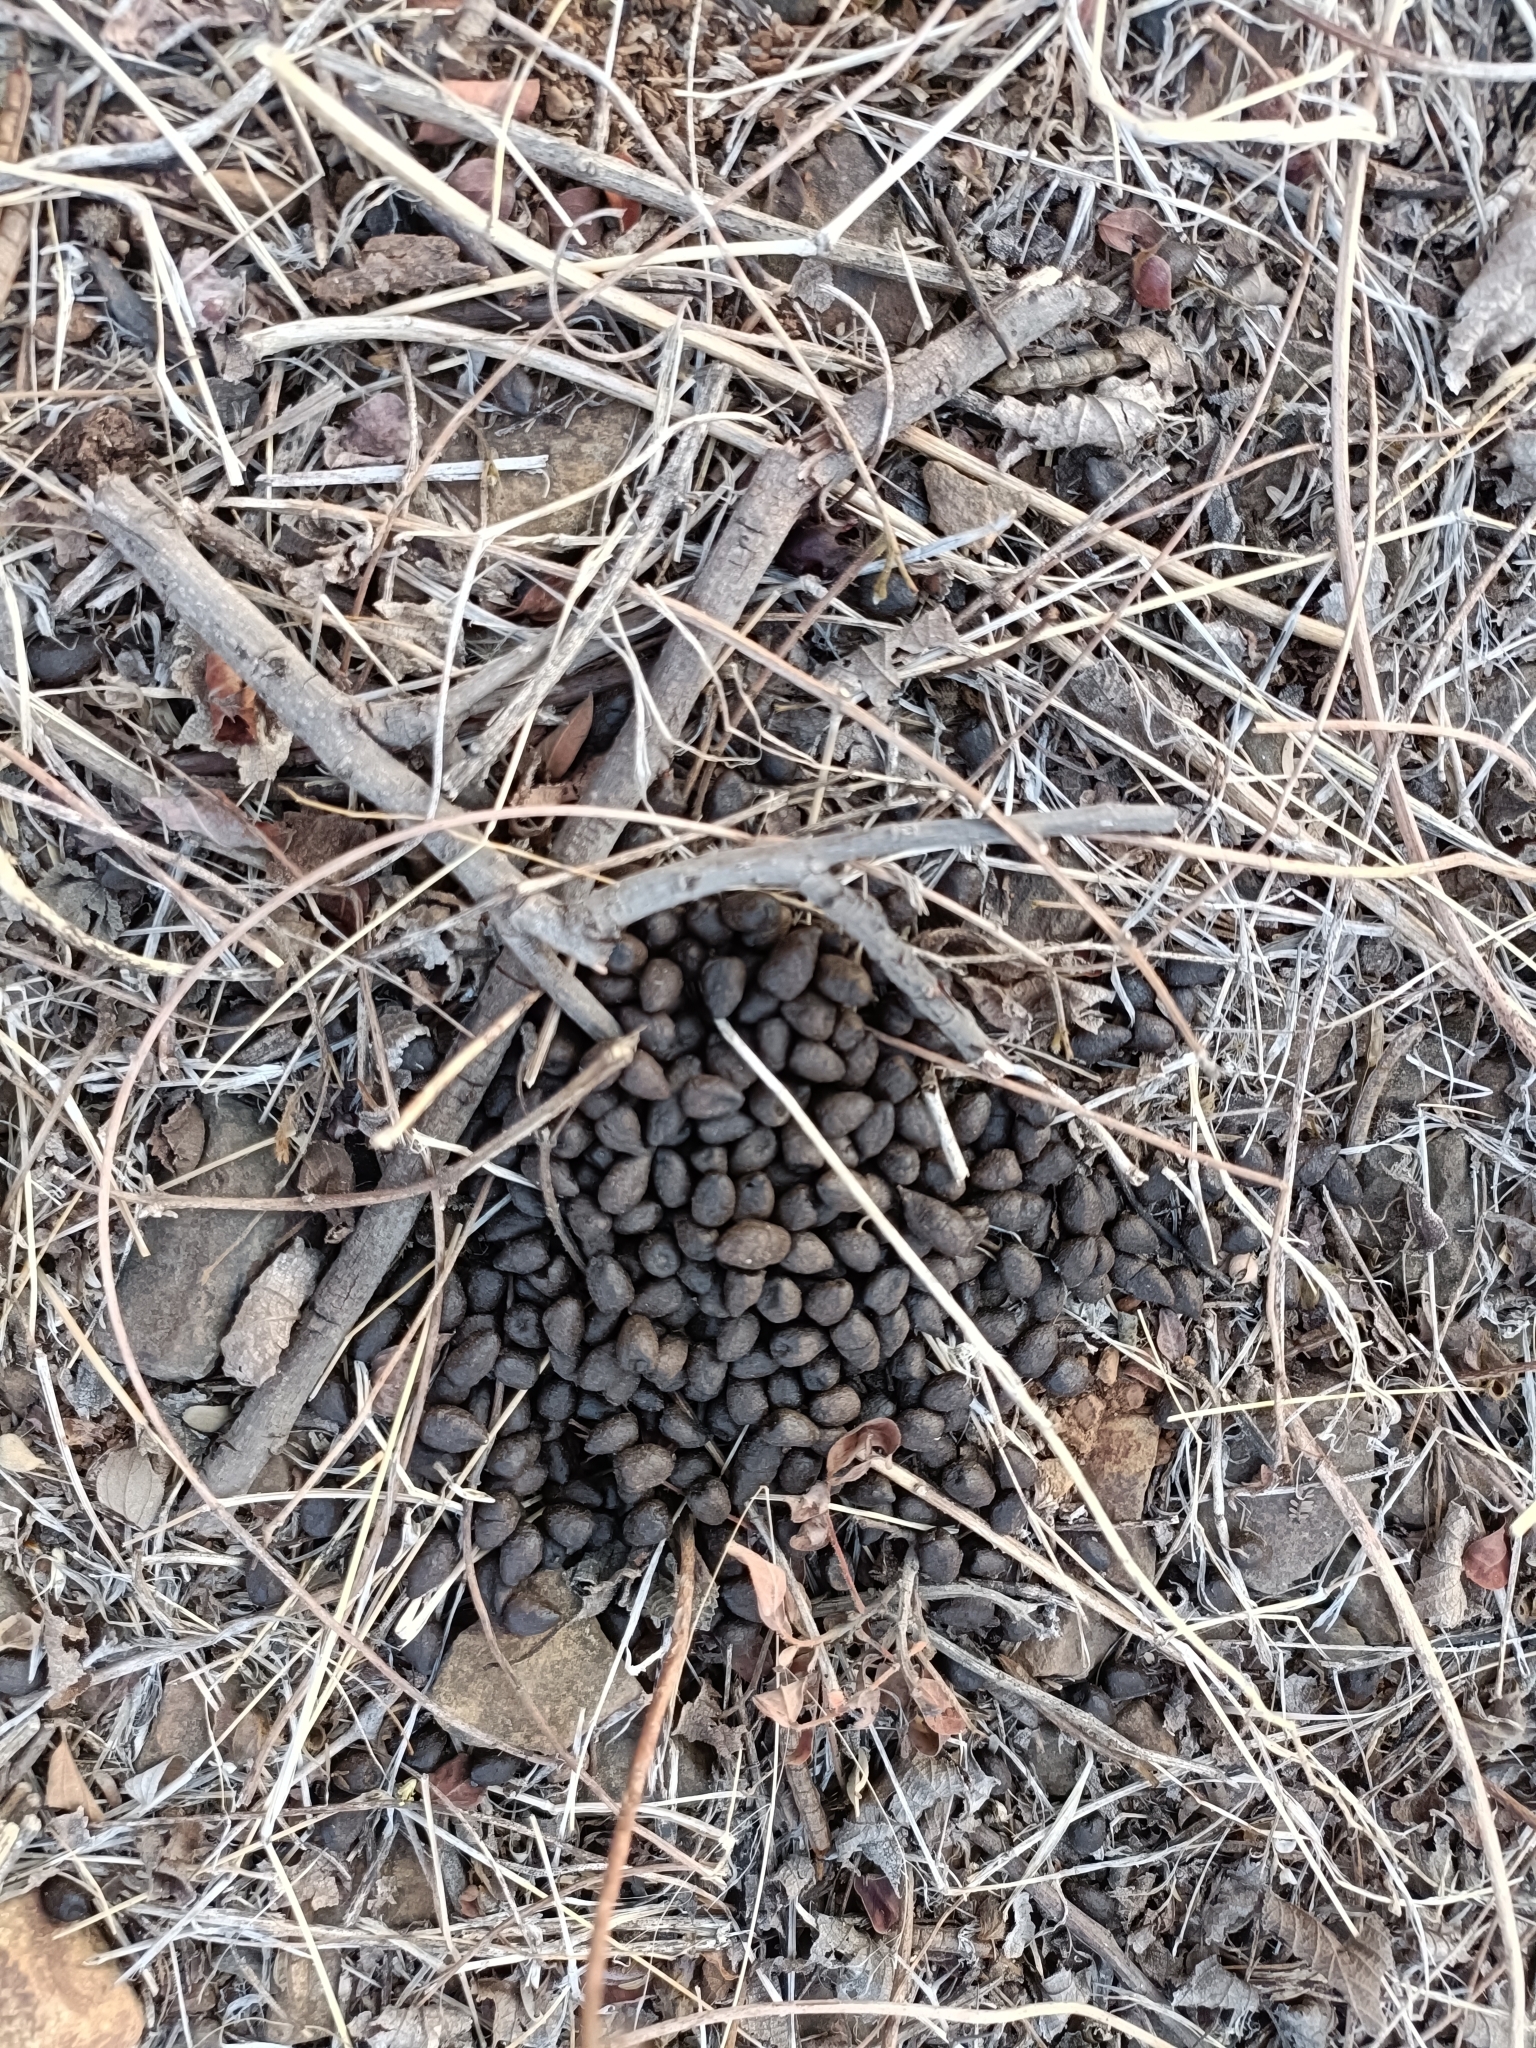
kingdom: Animalia
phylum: Chordata
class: Mammalia
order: Artiodactyla
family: Bovidae
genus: Gazella
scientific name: Gazella bennettii
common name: Indian gazelle
